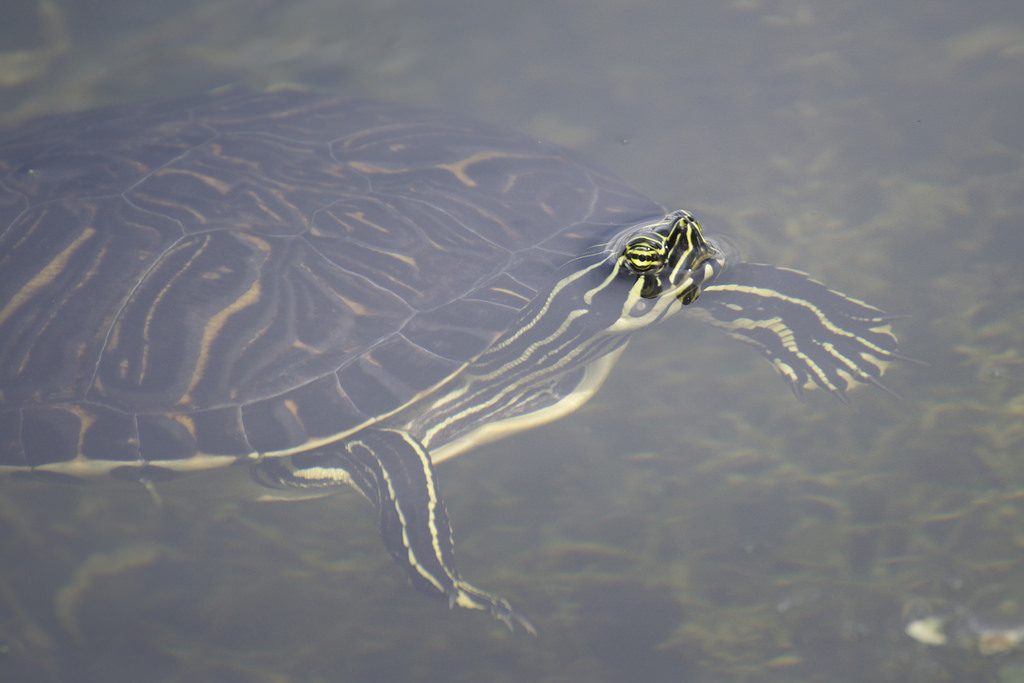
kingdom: Animalia
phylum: Chordata
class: Testudines
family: Emydidae
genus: Pseudemys
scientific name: Pseudemys peninsularis
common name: Peninsula cooter
